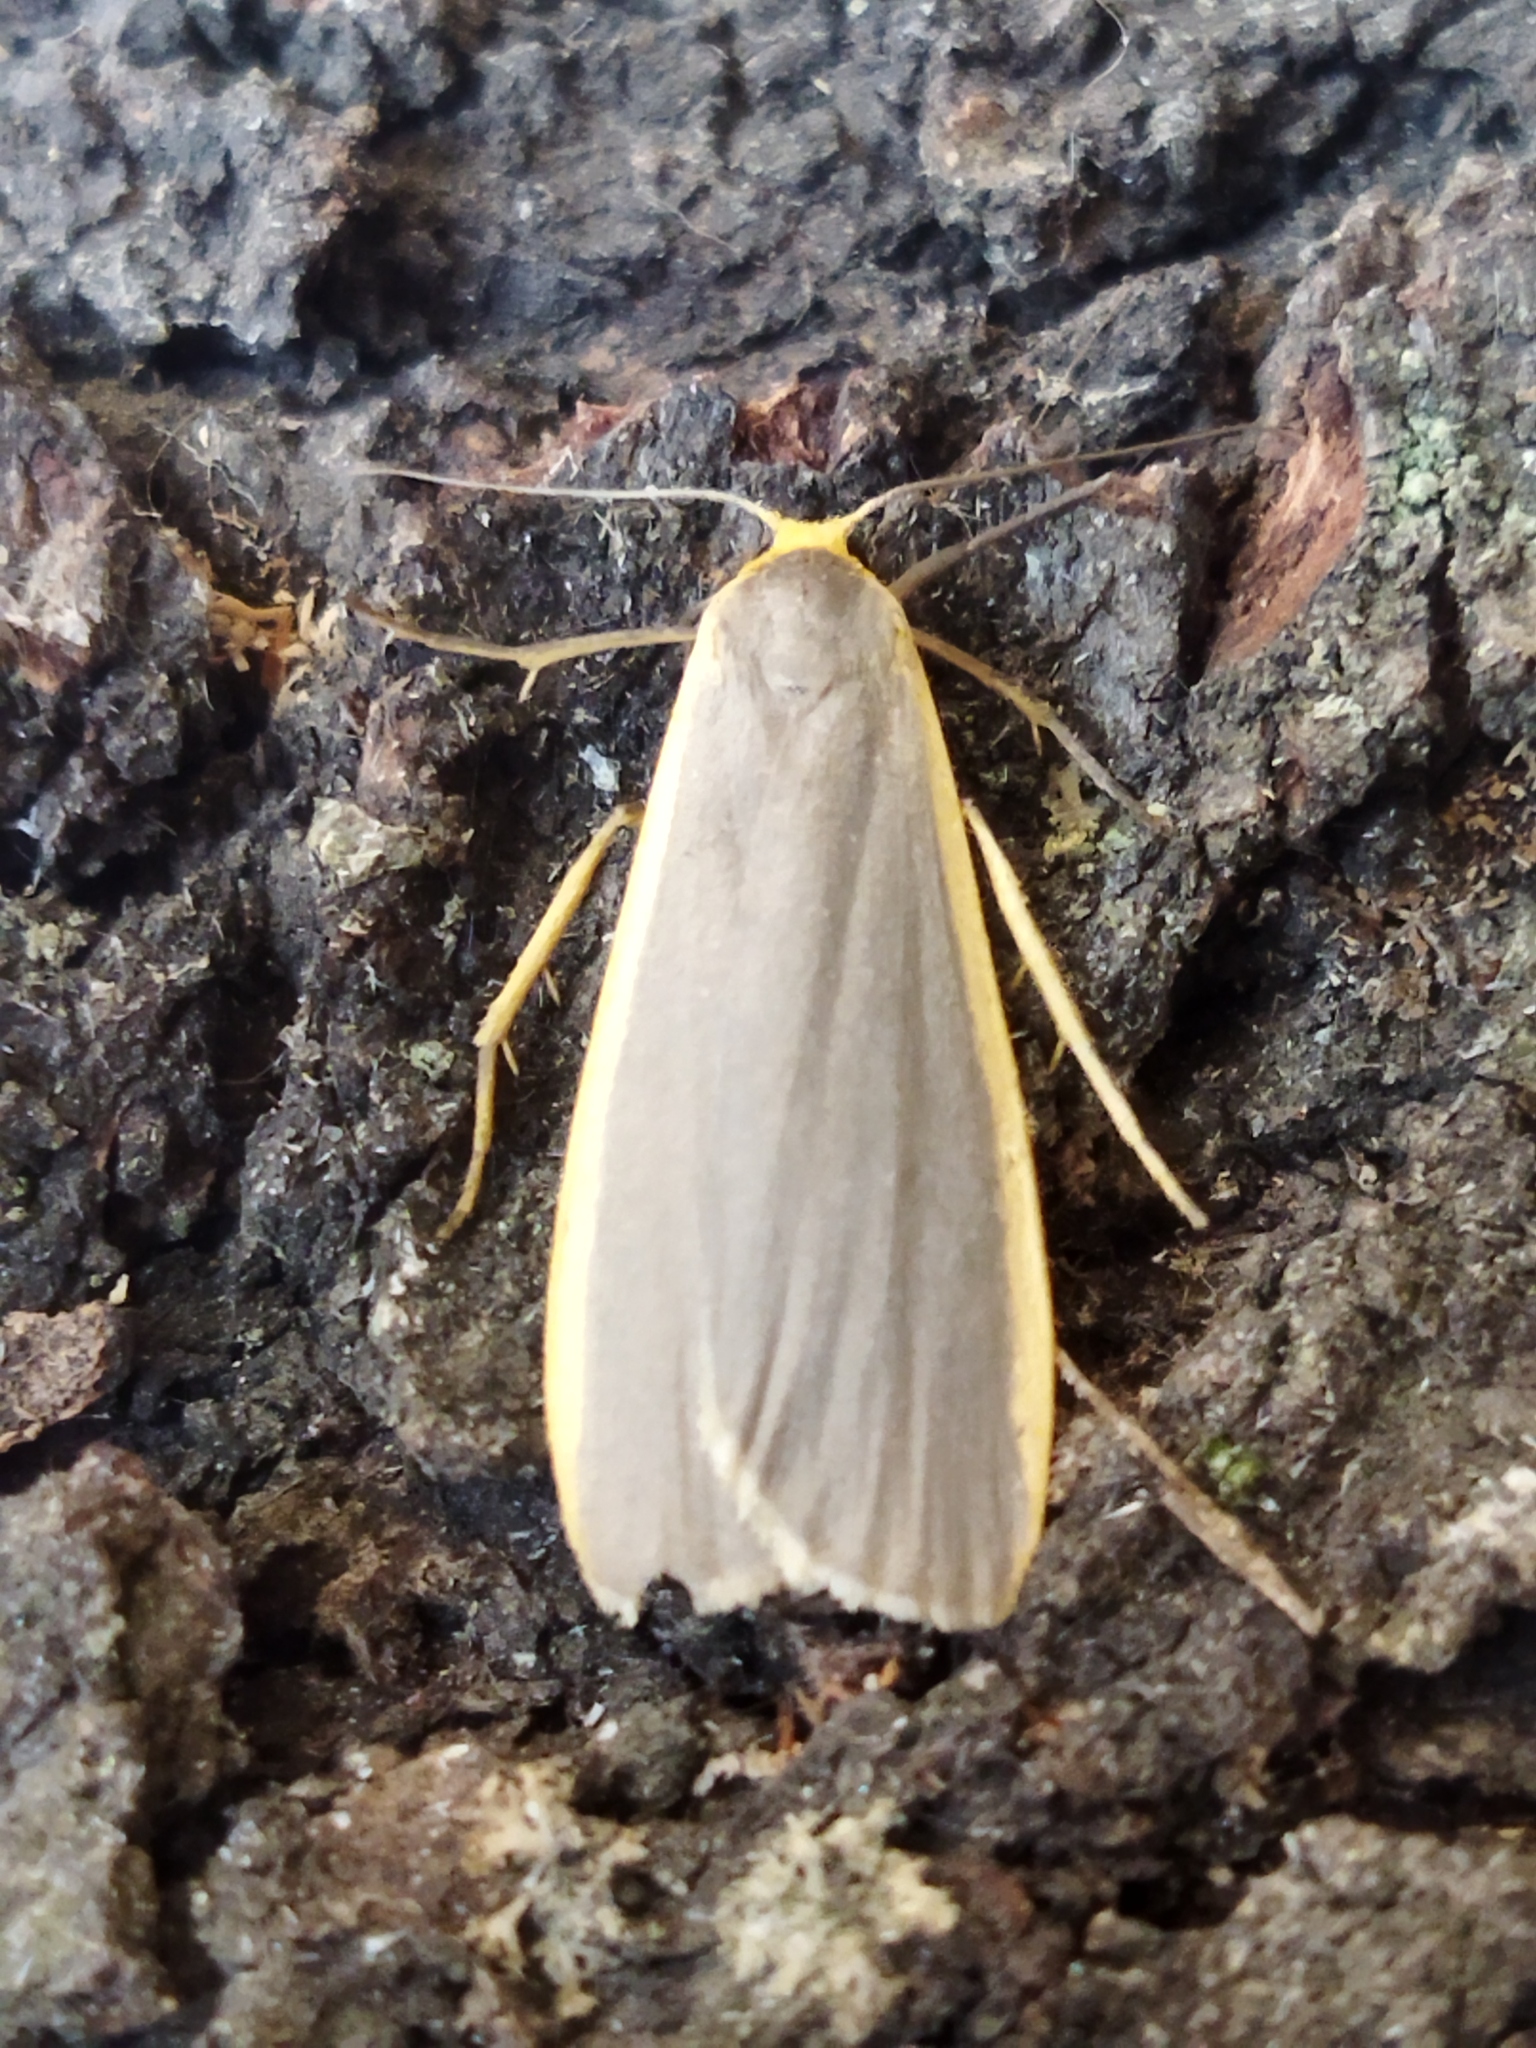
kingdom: Animalia
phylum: Arthropoda
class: Insecta
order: Lepidoptera
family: Erebidae
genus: Nyea
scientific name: Nyea lurideola
